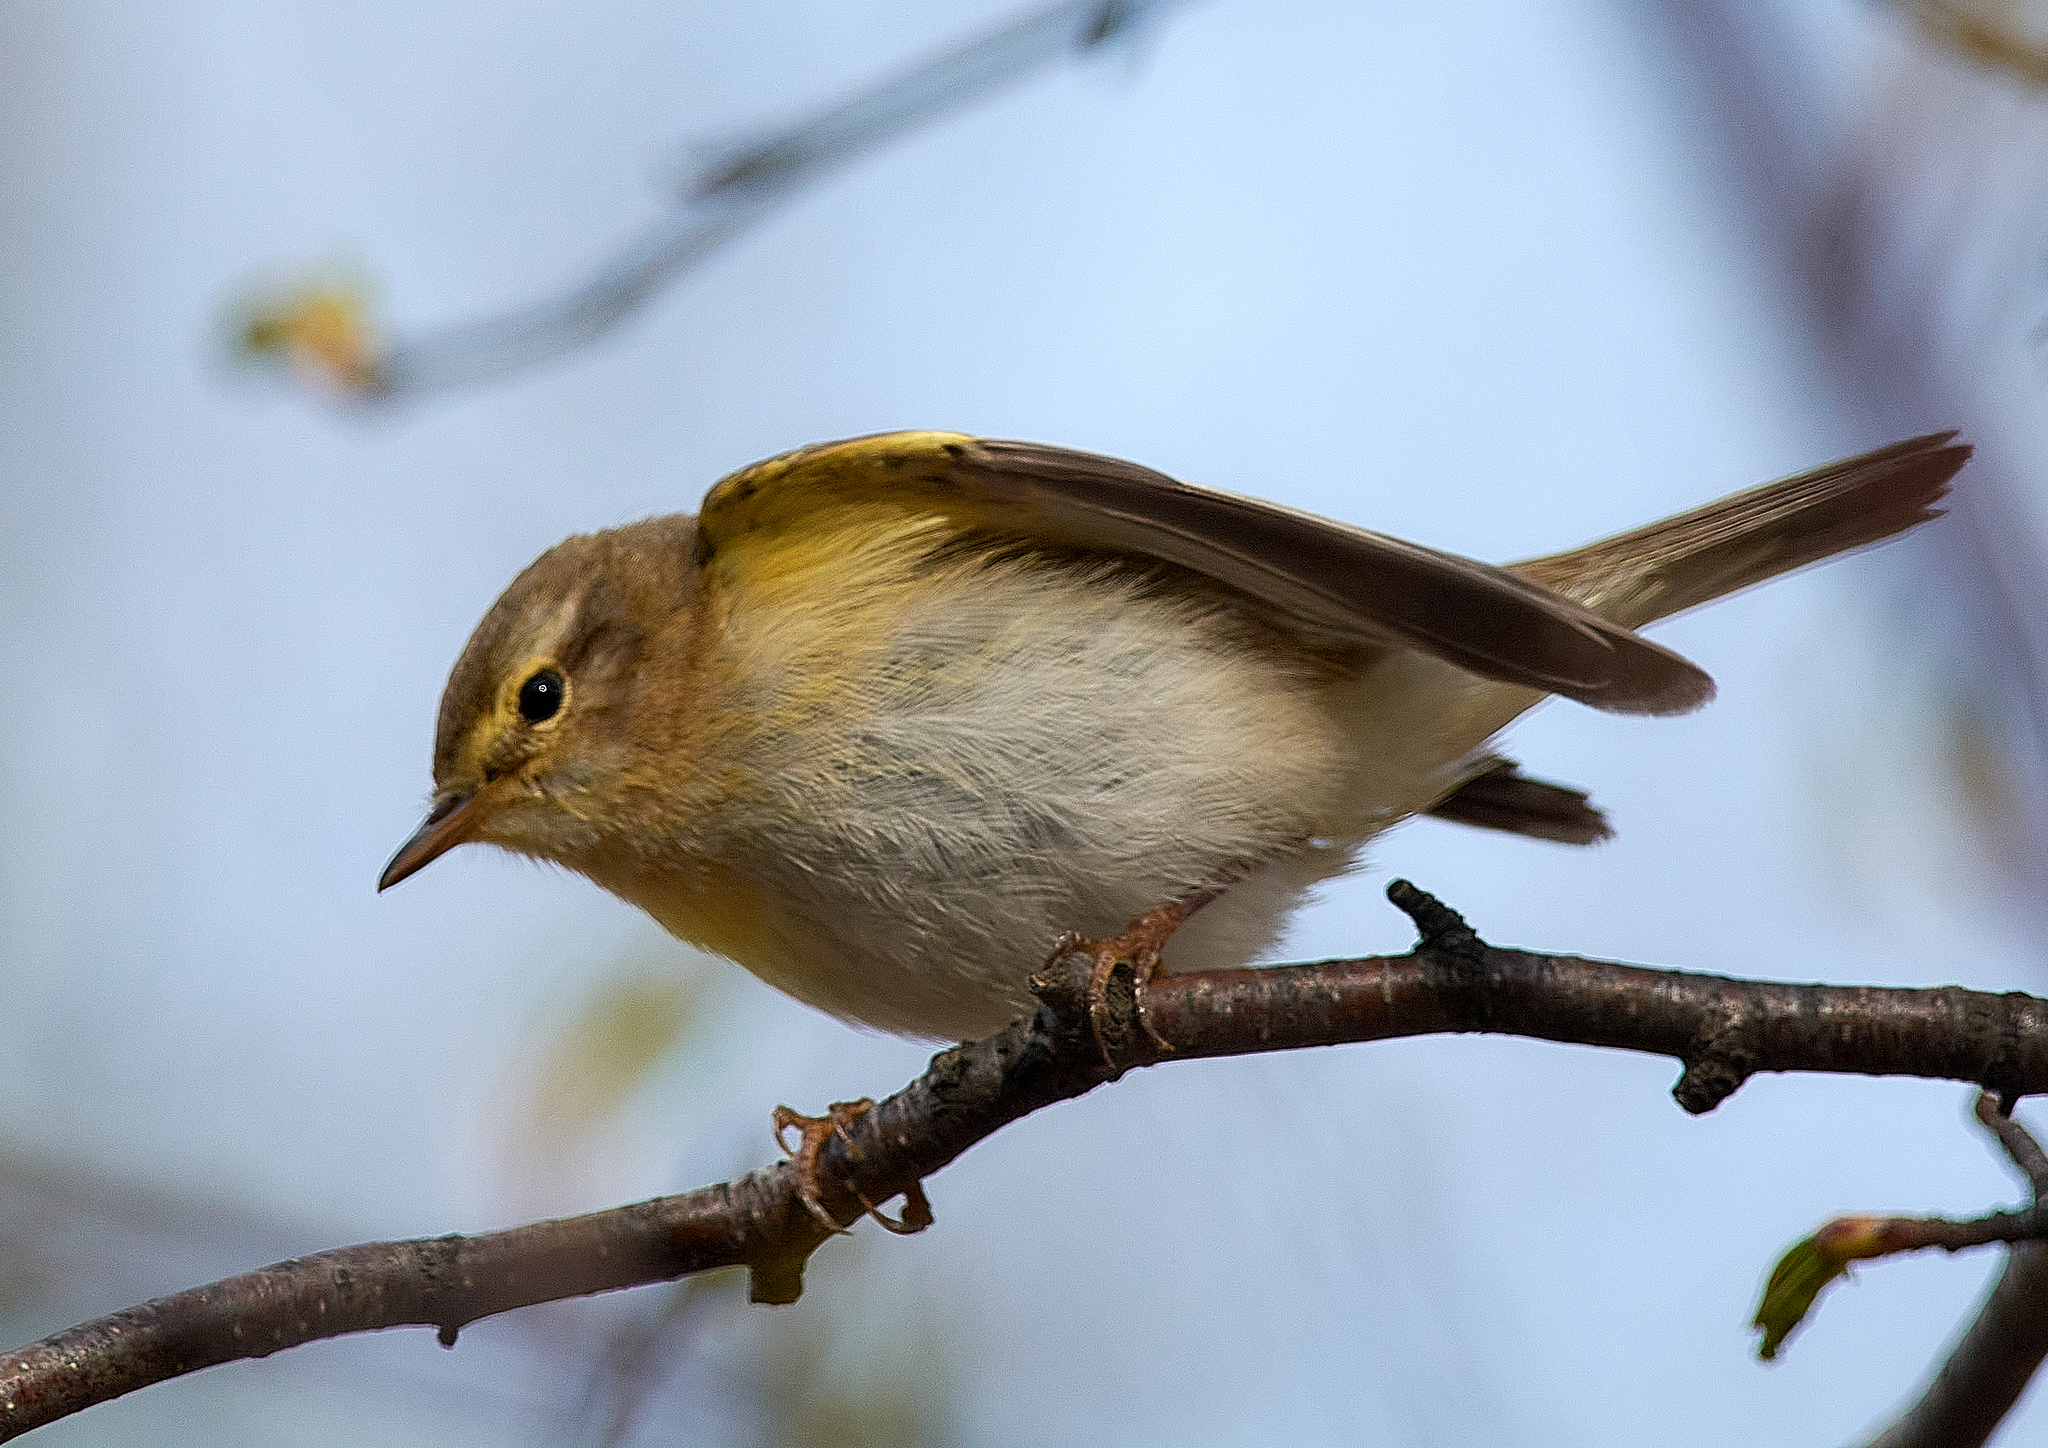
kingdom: Animalia
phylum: Chordata
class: Aves
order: Passeriformes
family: Phylloscopidae
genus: Phylloscopus
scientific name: Phylloscopus trochilus
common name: Willow warbler
